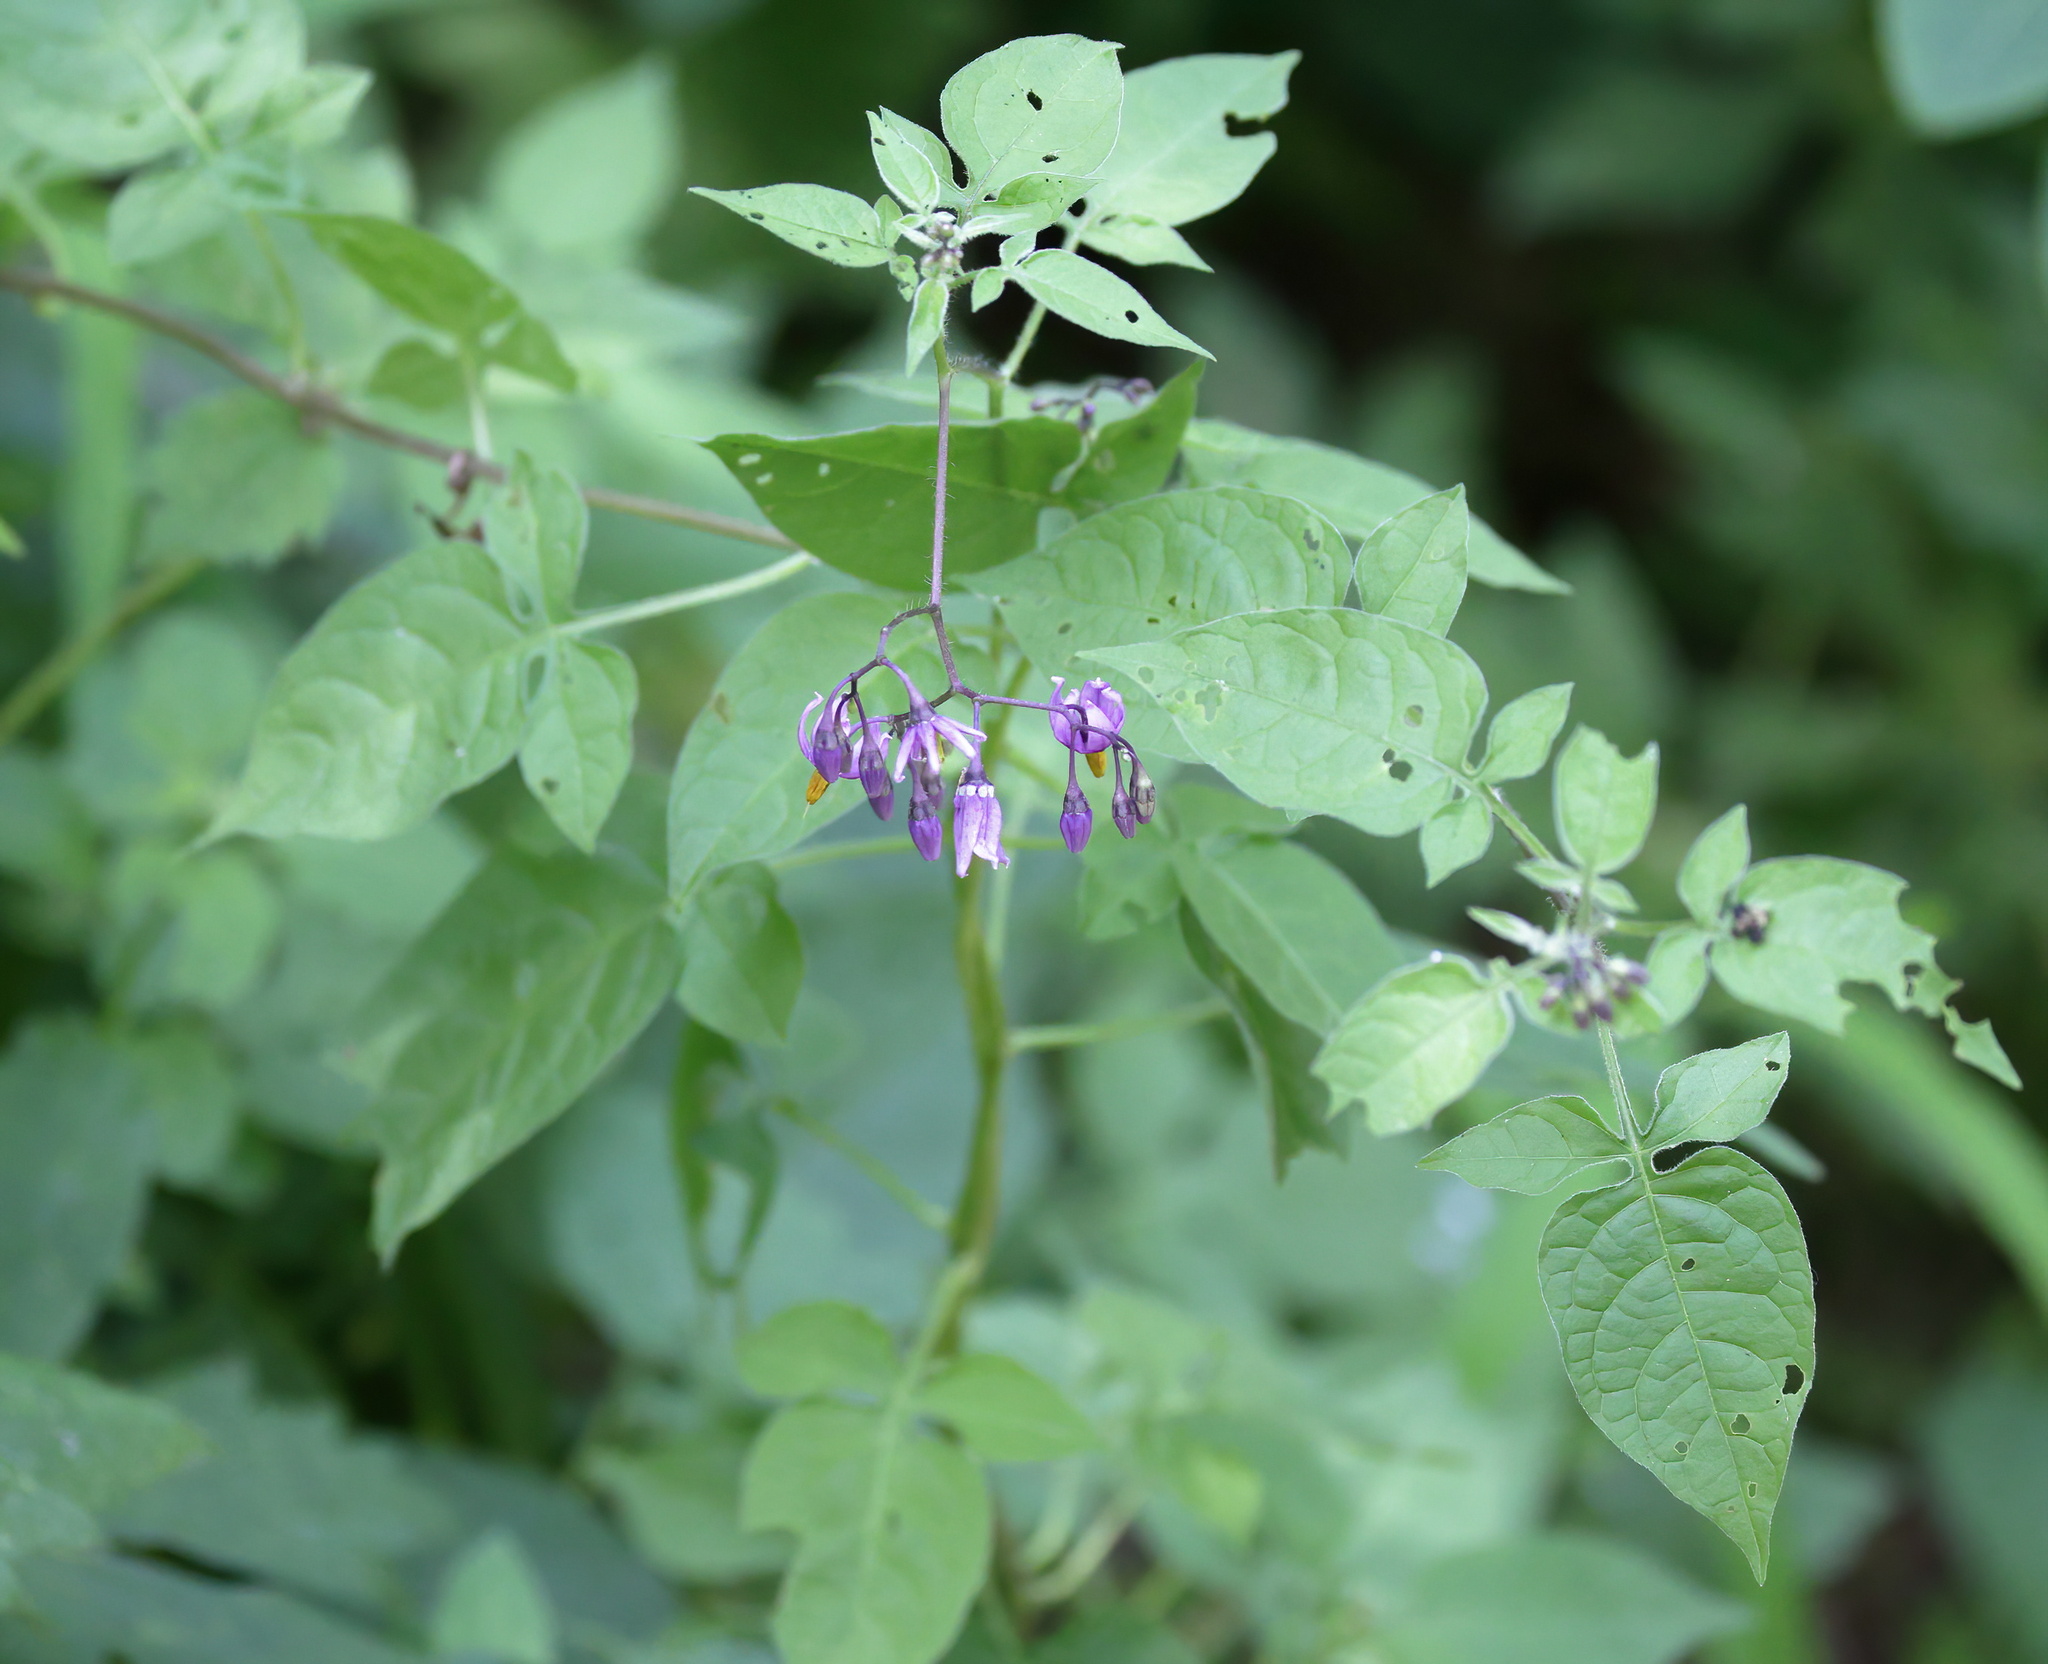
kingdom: Plantae
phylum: Tracheophyta
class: Magnoliopsida
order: Solanales
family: Solanaceae
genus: Solanum
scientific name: Solanum dulcamara
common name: Climbing nightshade
